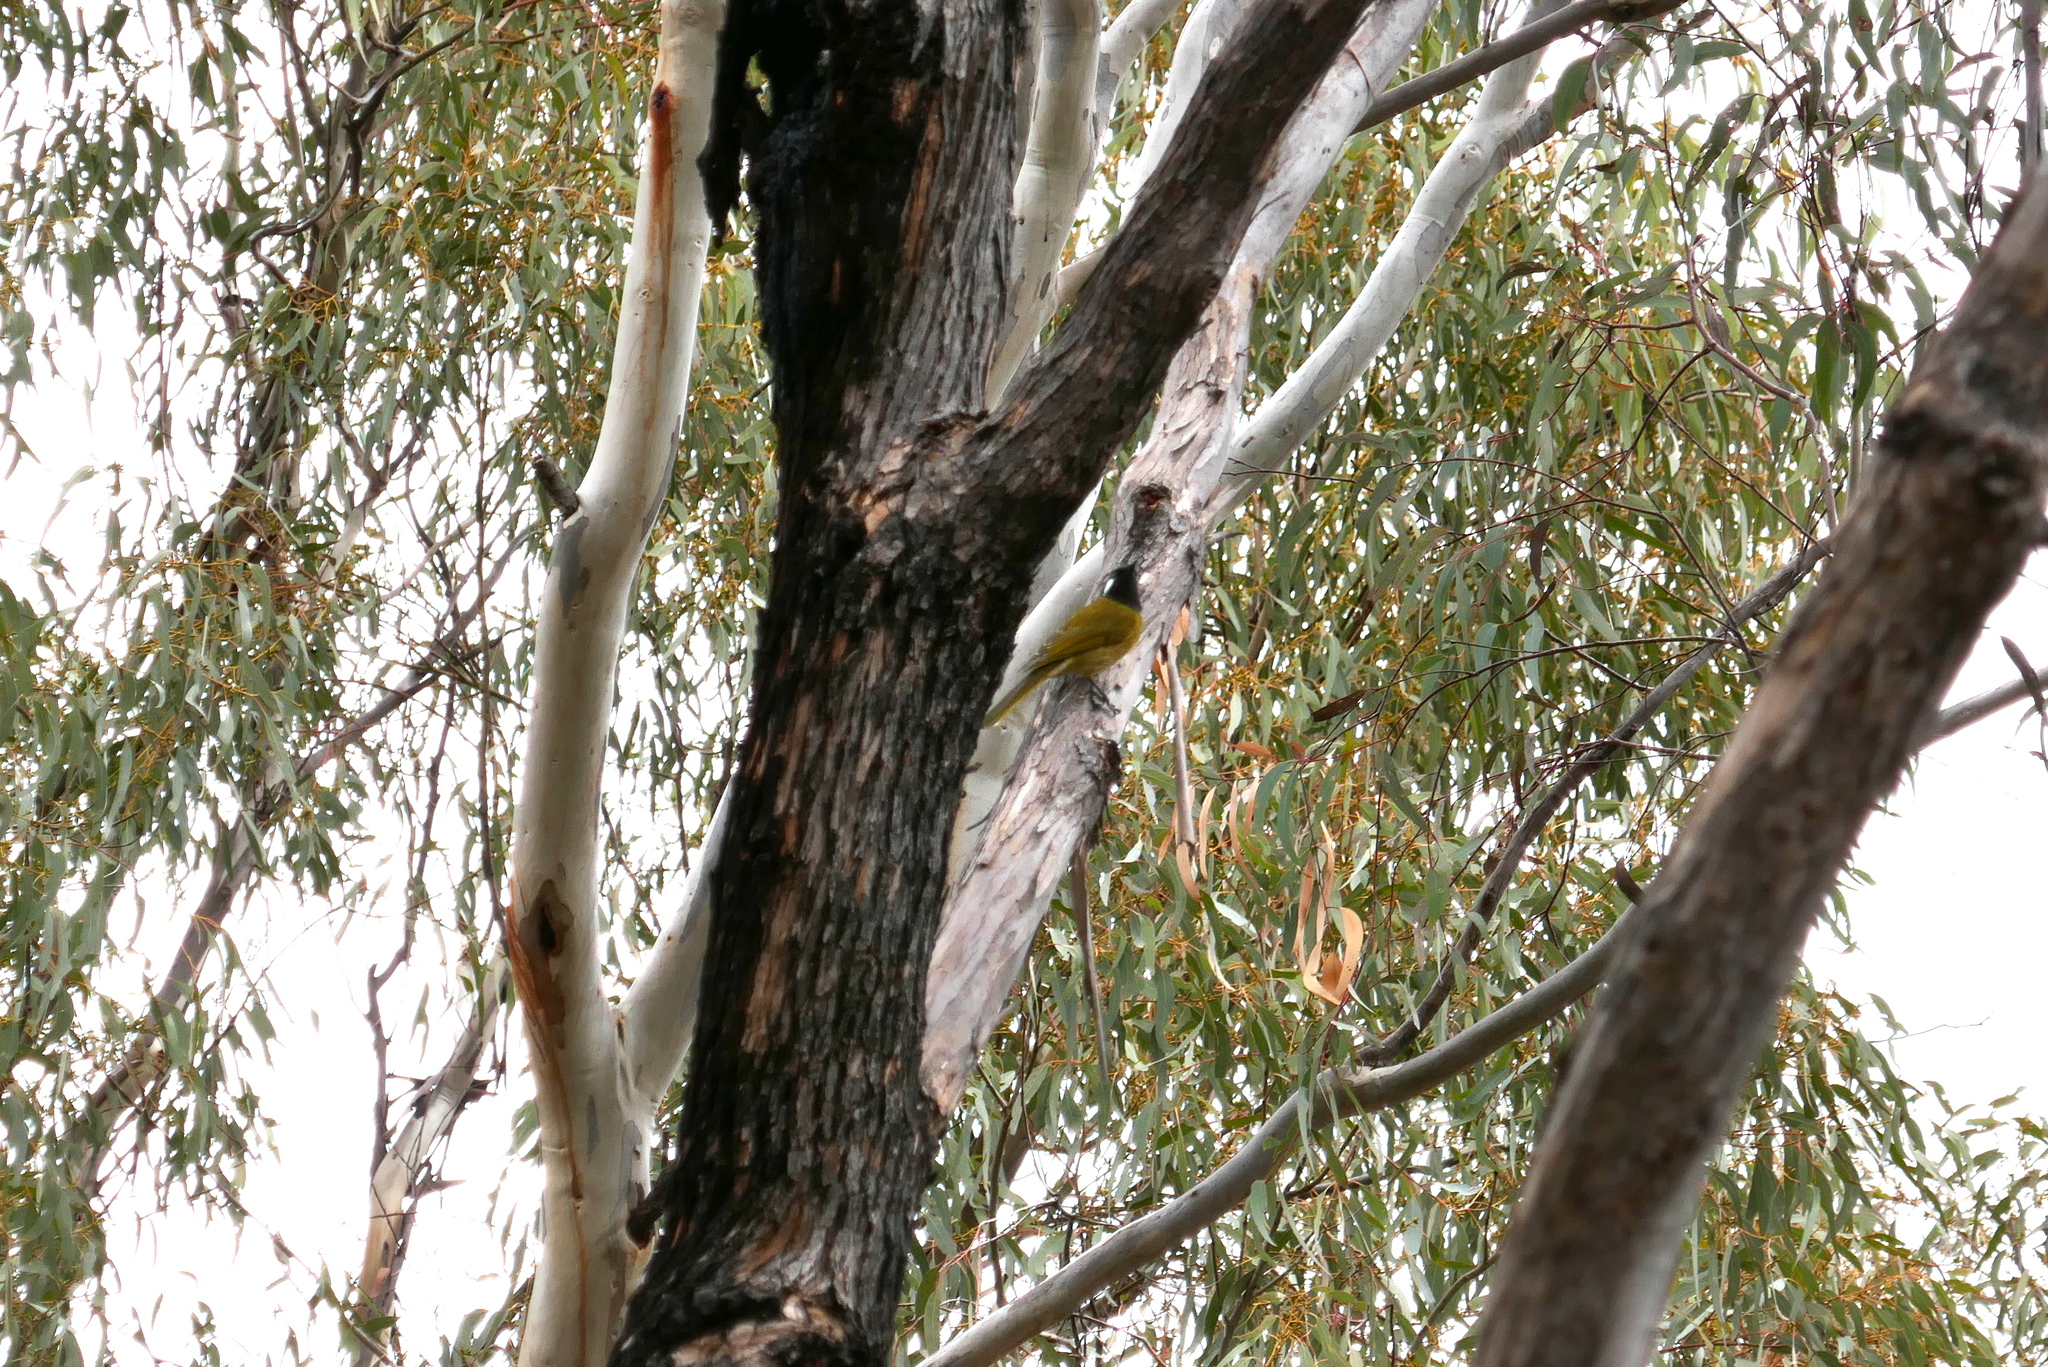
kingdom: Animalia
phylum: Chordata
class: Aves
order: Passeriformes
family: Meliphagidae
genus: Nesoptilotis
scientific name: Nesoptilotis leucotis
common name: White-eared honeyeater
